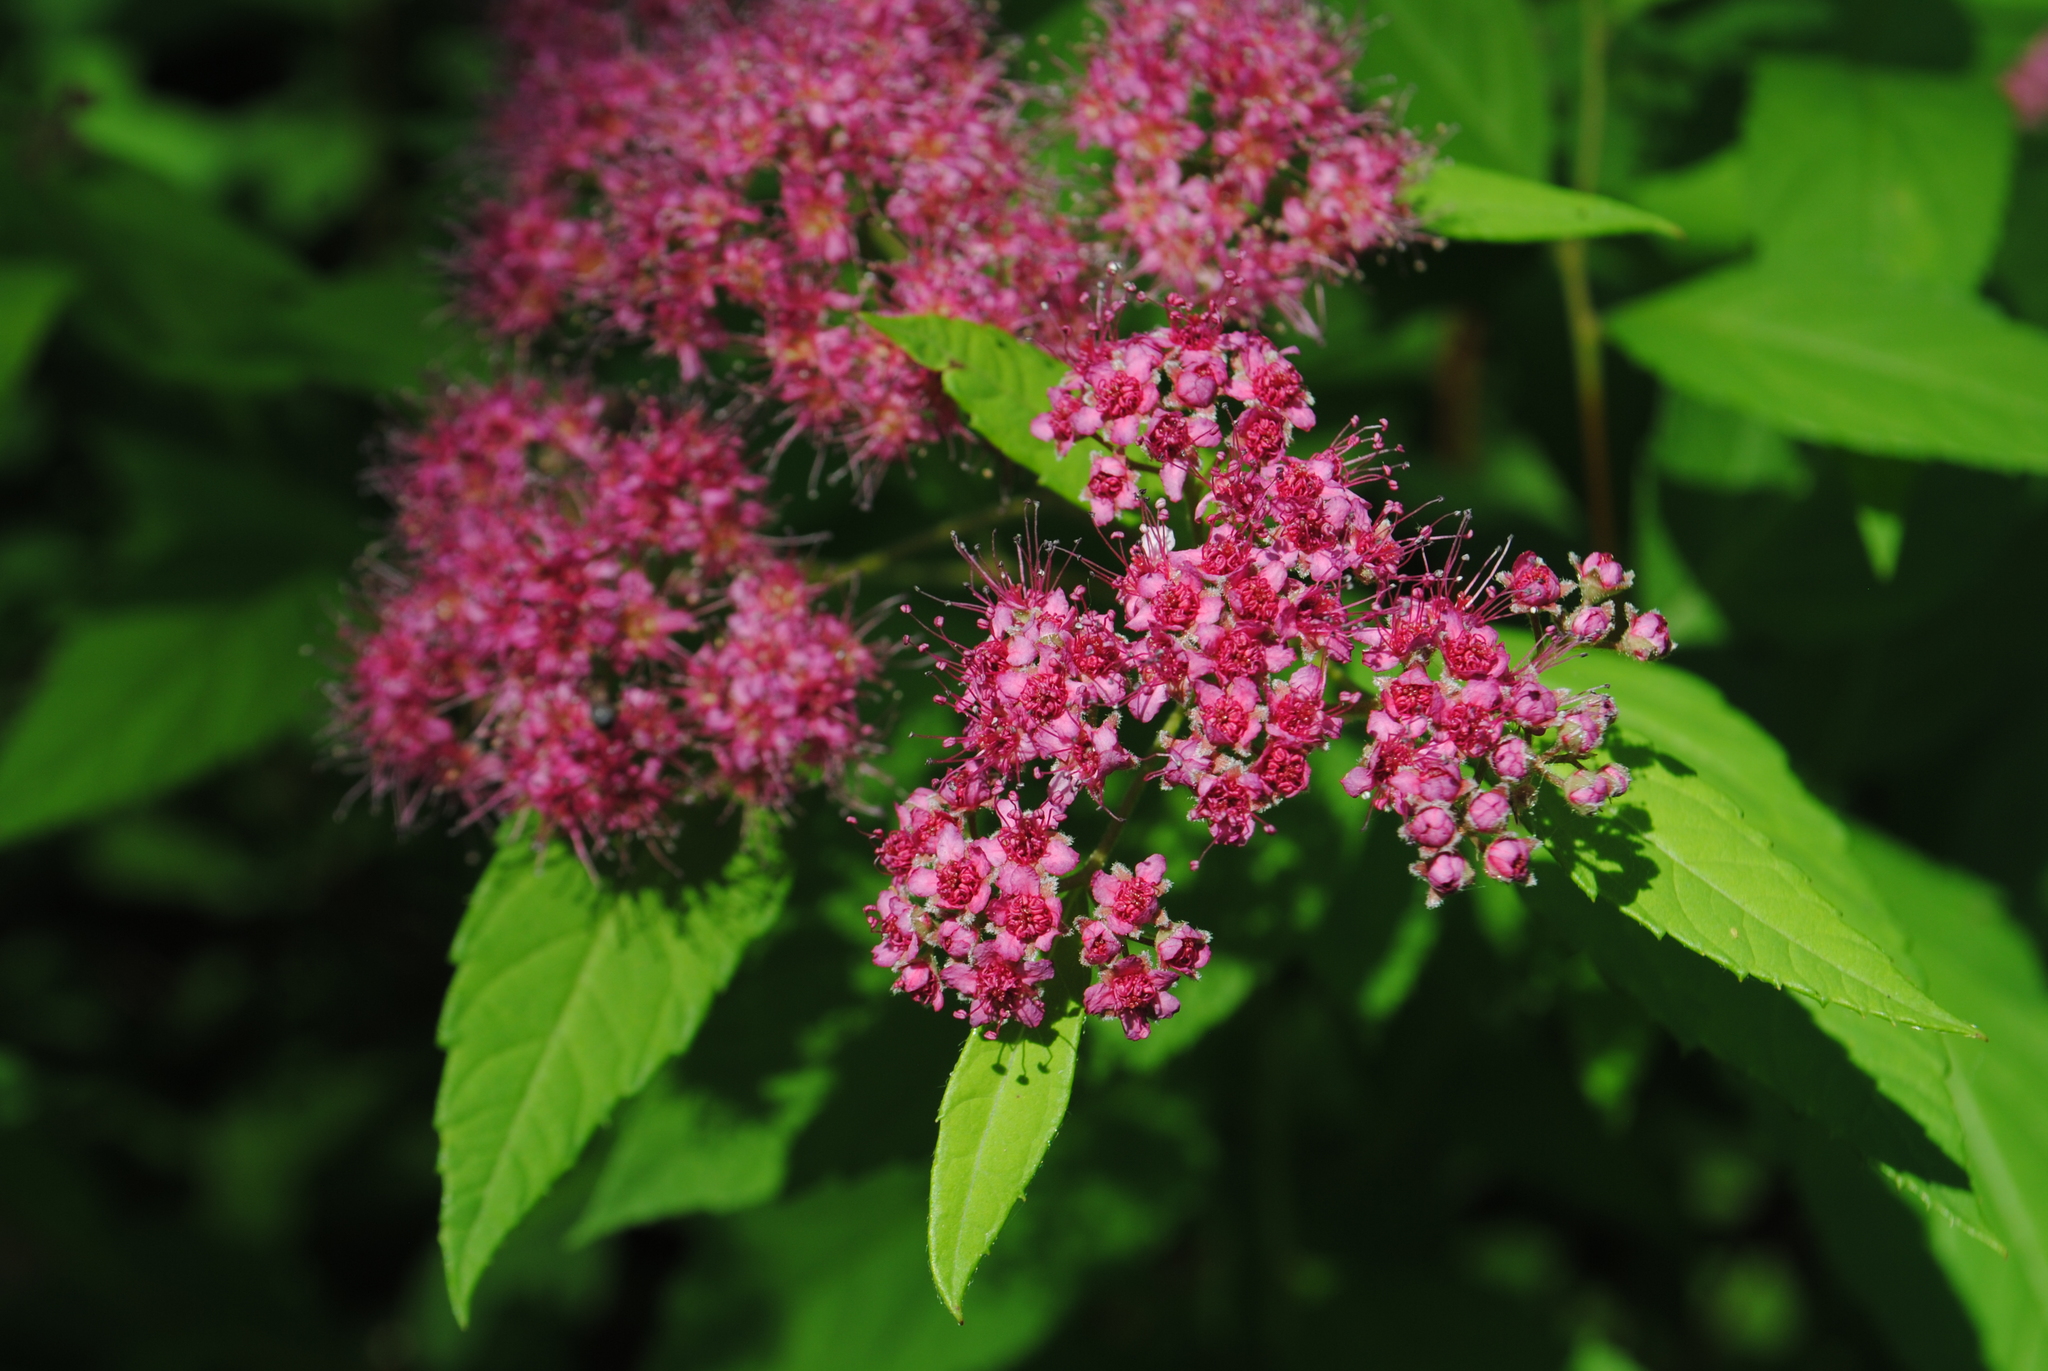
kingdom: Plantae
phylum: Tracheophyta
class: Magnoliopsida
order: Rosales
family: Rosaceae
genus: Spiraea
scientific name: Spiraea japonica
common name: Japanese spiraea
